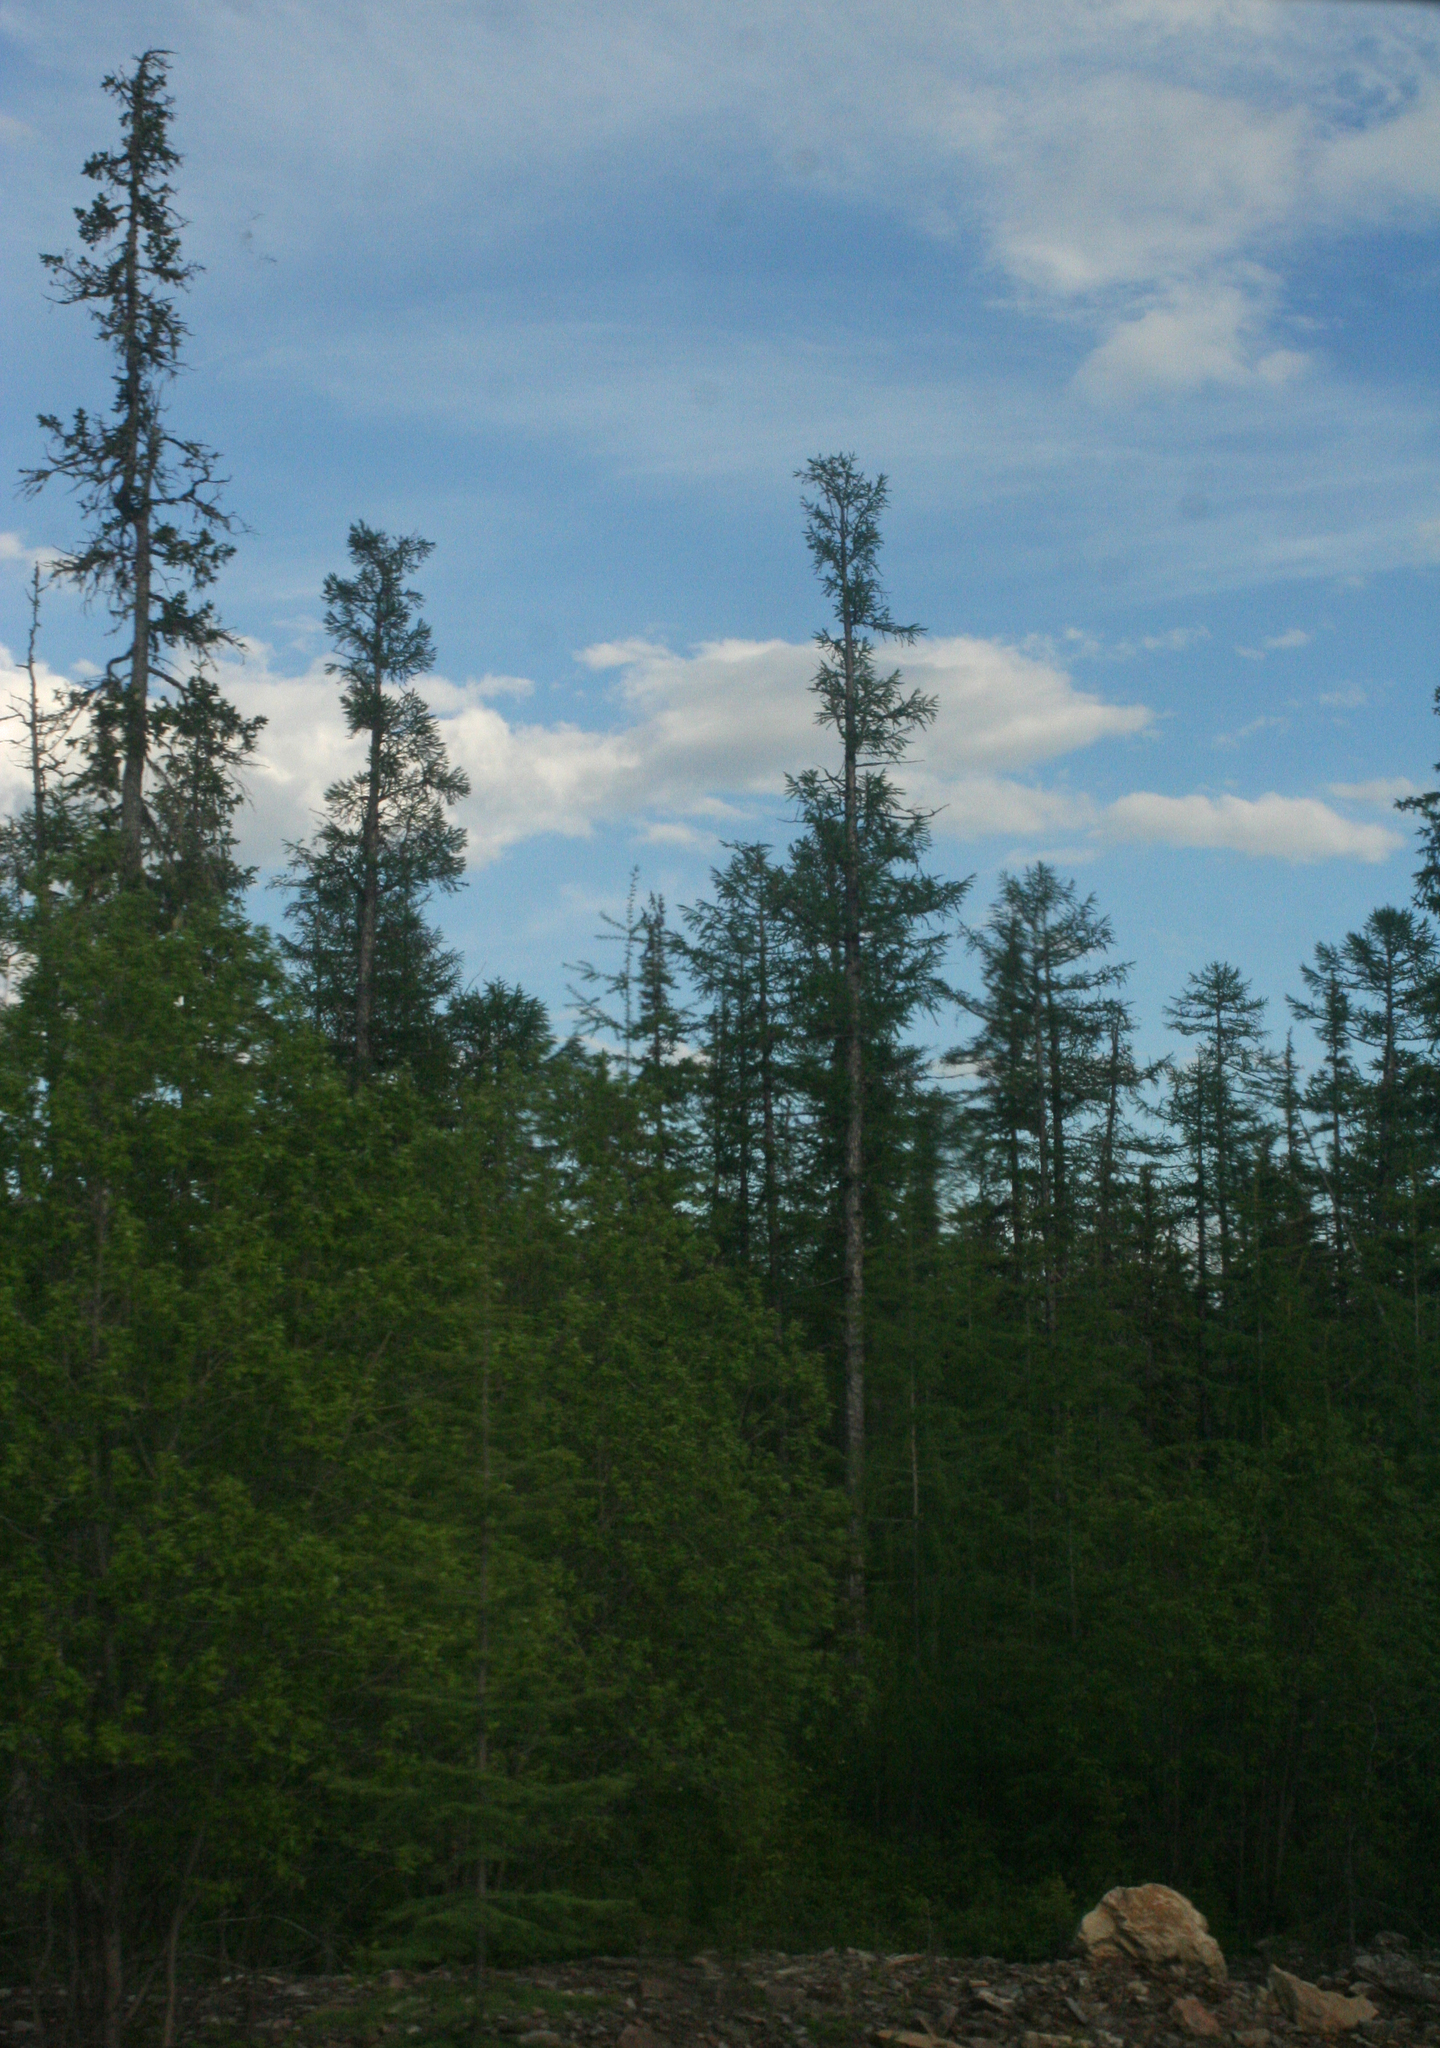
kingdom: Plantae
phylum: Tracheophyta
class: Pinopsida
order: Pinales
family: Pinaceae
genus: Picea
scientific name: Picea obovata
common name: Siberian spruce
